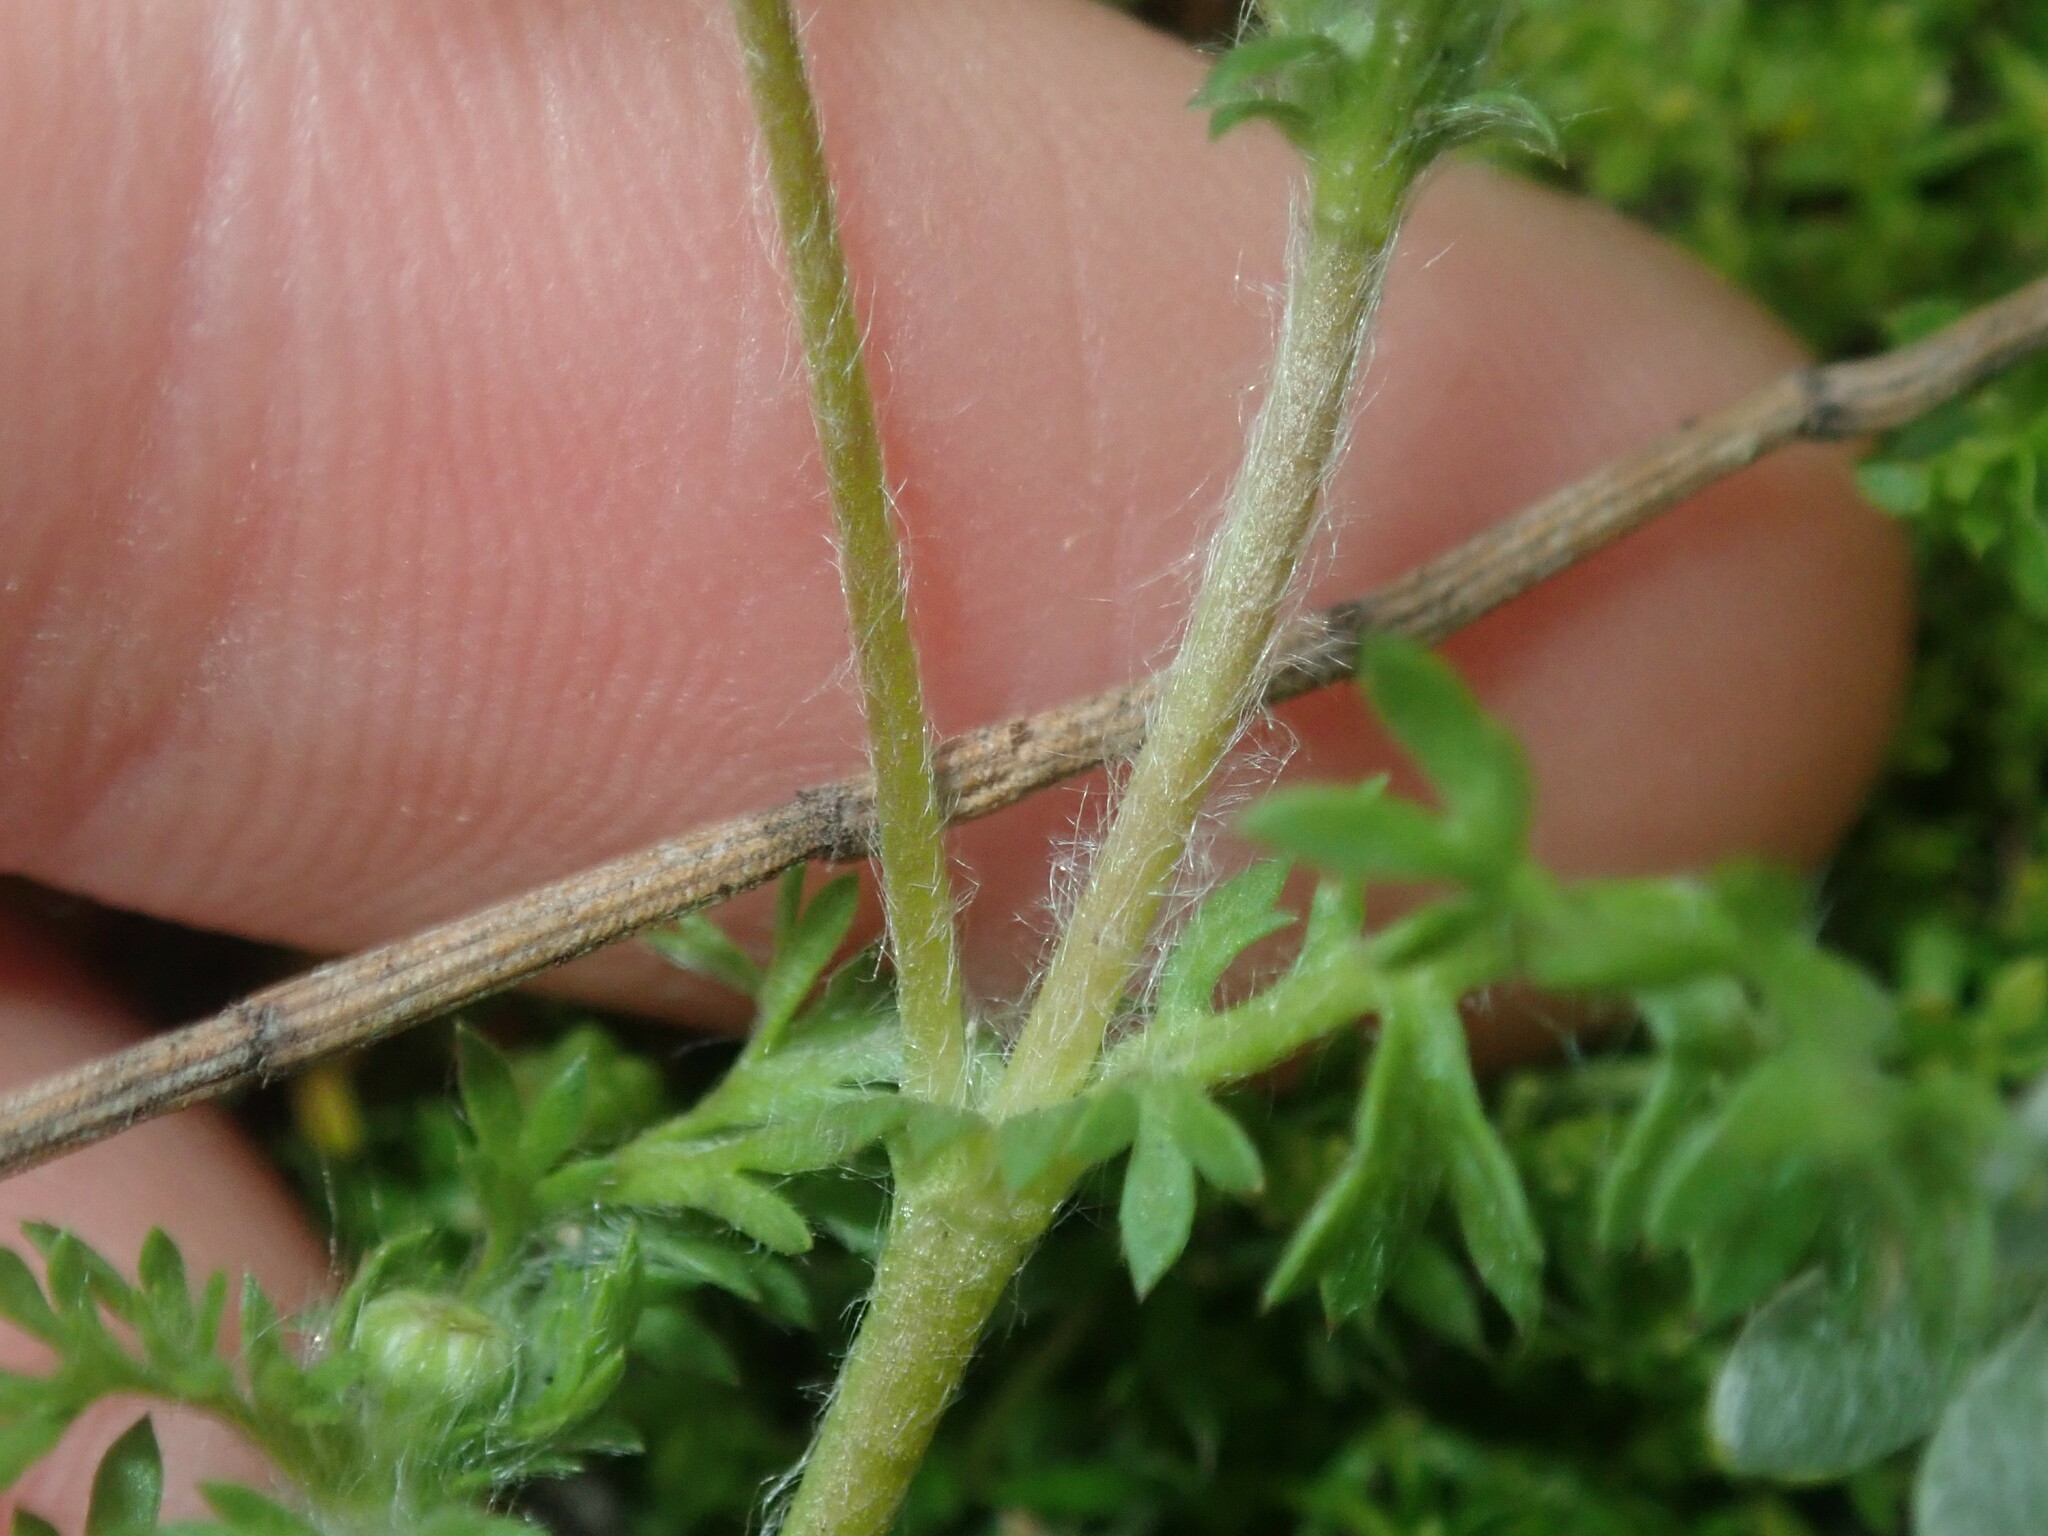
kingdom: Plantae
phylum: Tracheophyta
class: Magnoliopsida
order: Asterales
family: Asteraceae
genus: Cotula
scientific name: Cotula australis
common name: Australian waterbuttons
